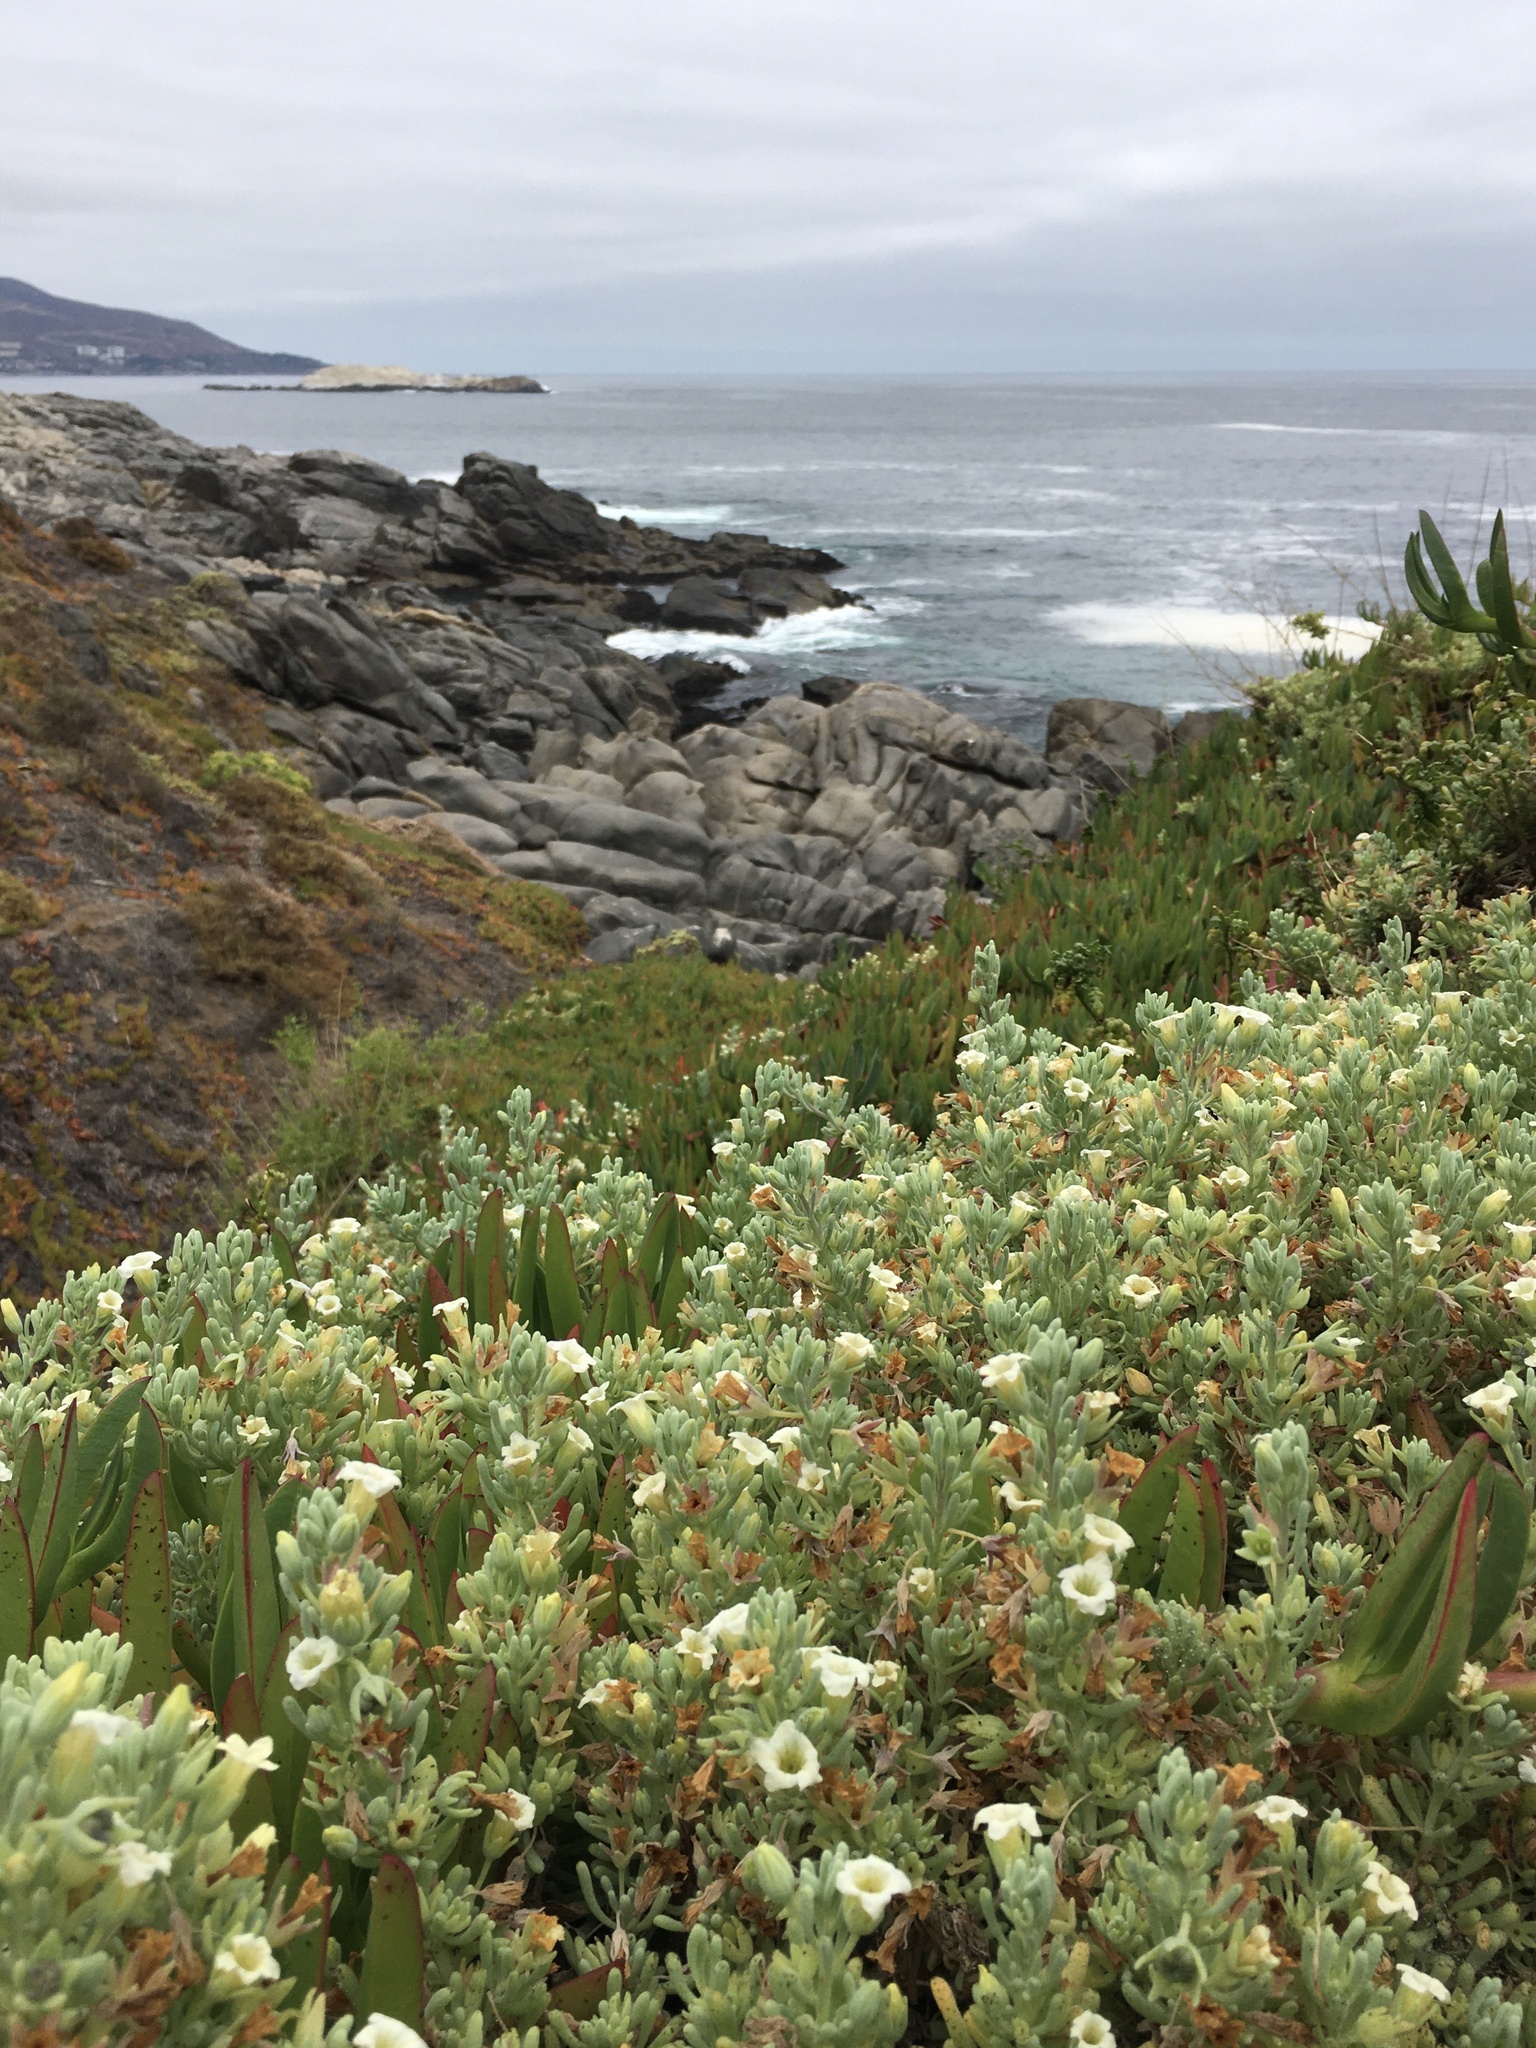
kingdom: Plantae
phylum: Tracheophyta
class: Magnoliopsida
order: Solanales
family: Solanaceae
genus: Nolana
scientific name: Nolana crassulifolia
